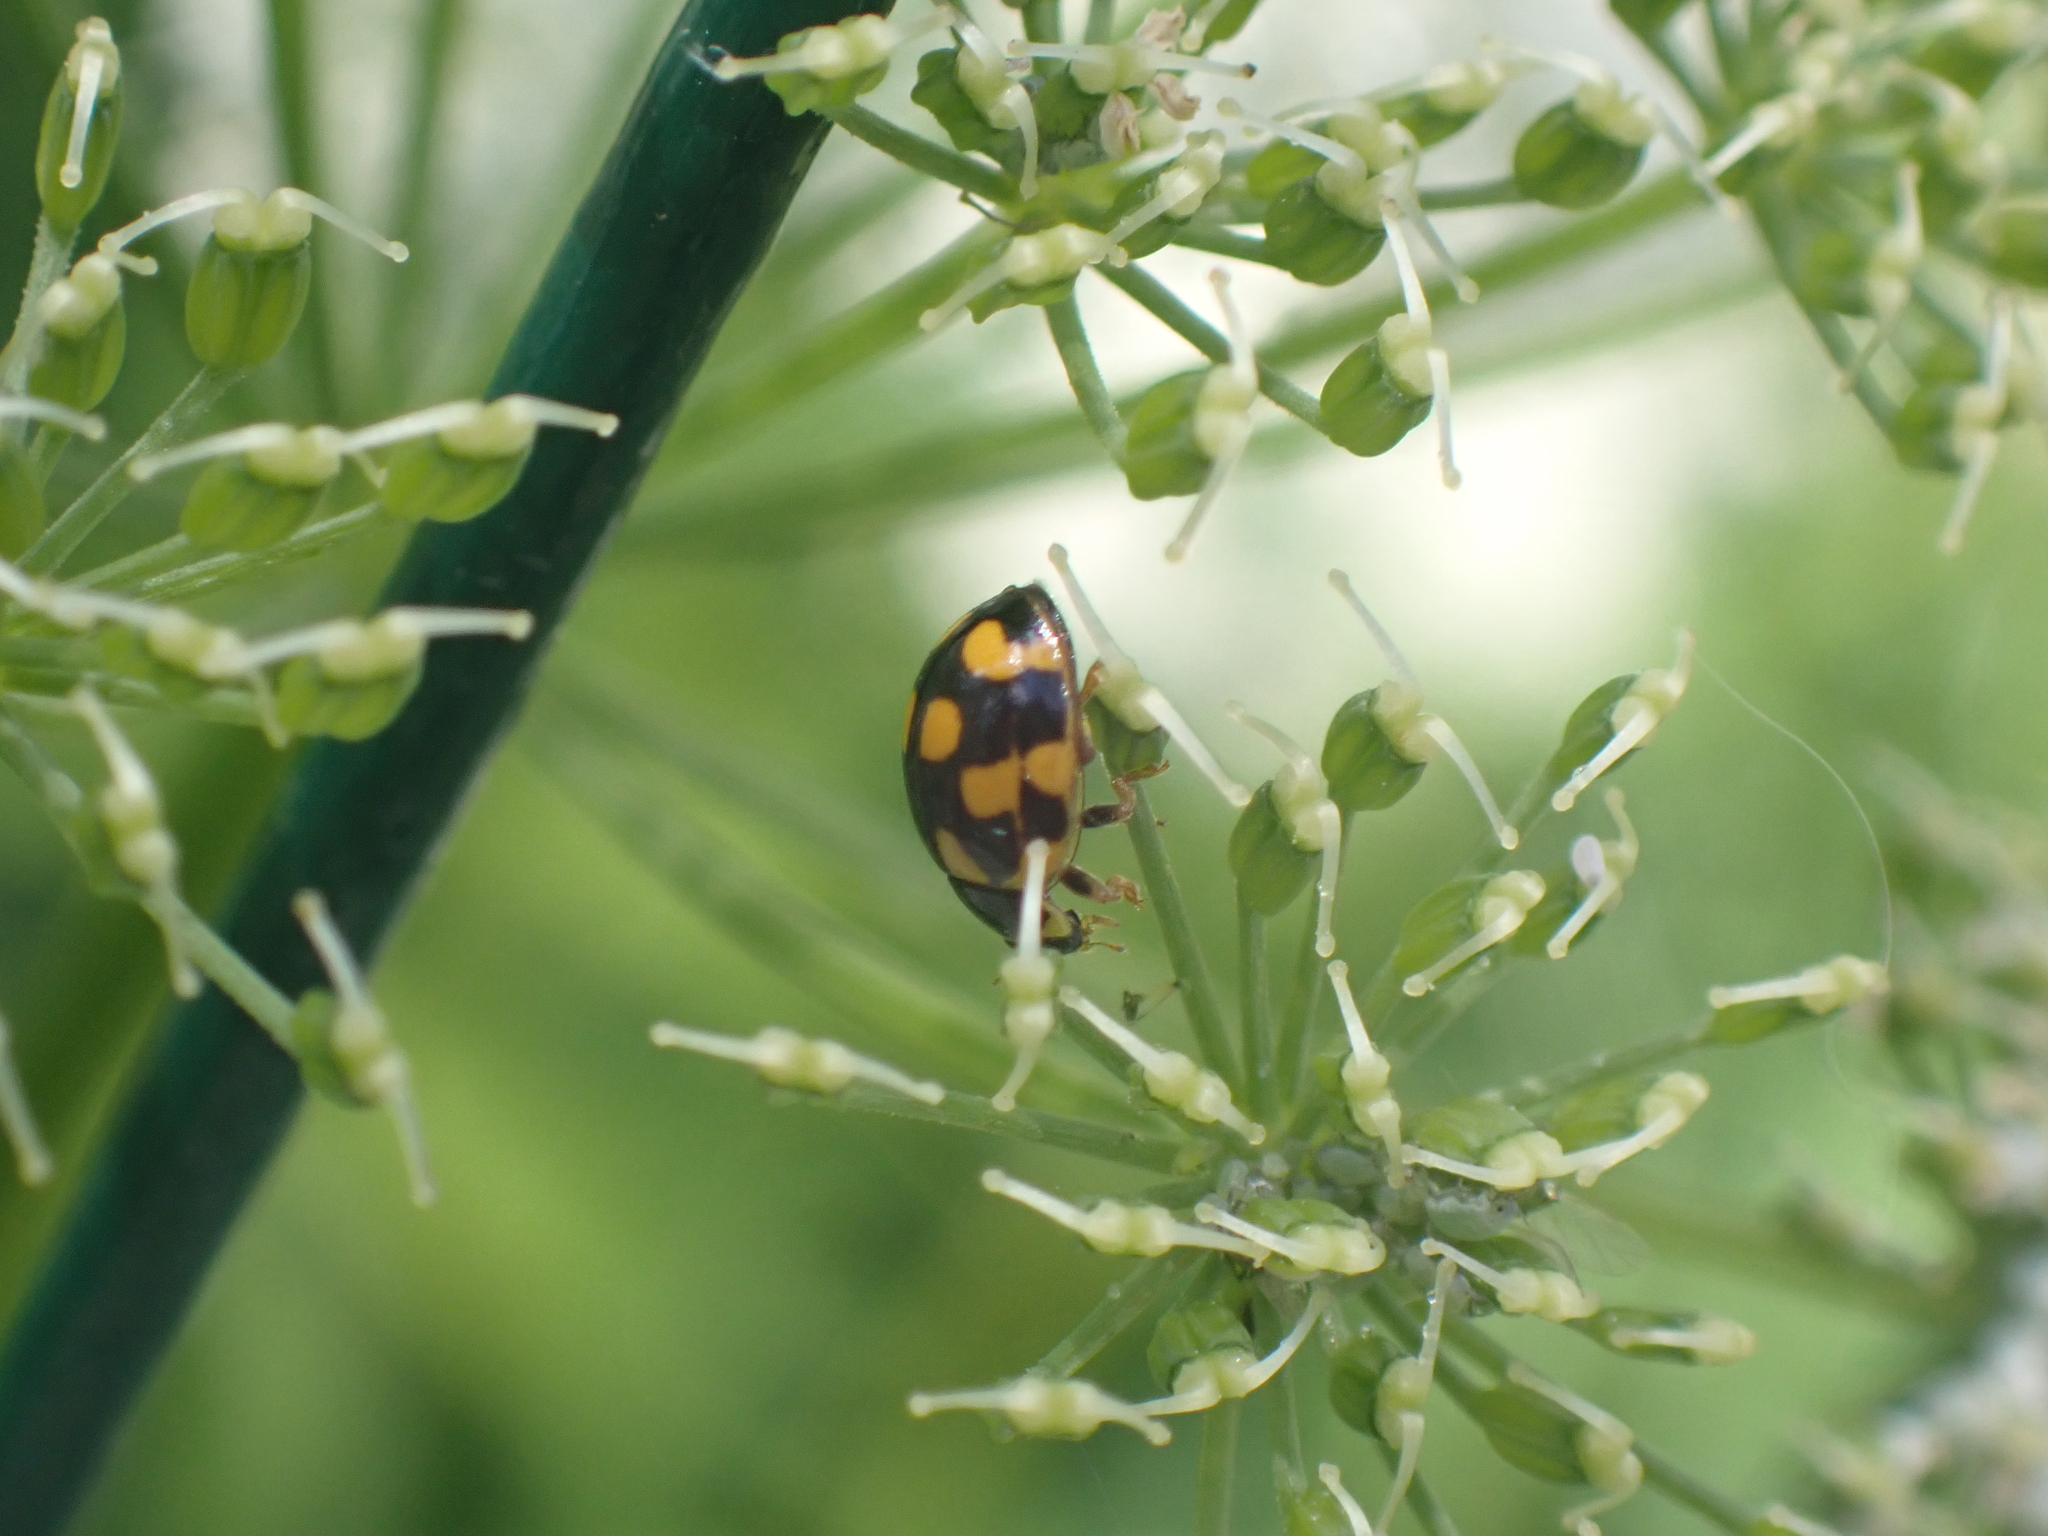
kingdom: Animalia
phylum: Arthropoda
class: Insecta
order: Coleoptera
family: Coccinellidae
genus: Propylaea
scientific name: Propylaea quatuordecimpunctata
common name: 14-spotted ladybird beetle
